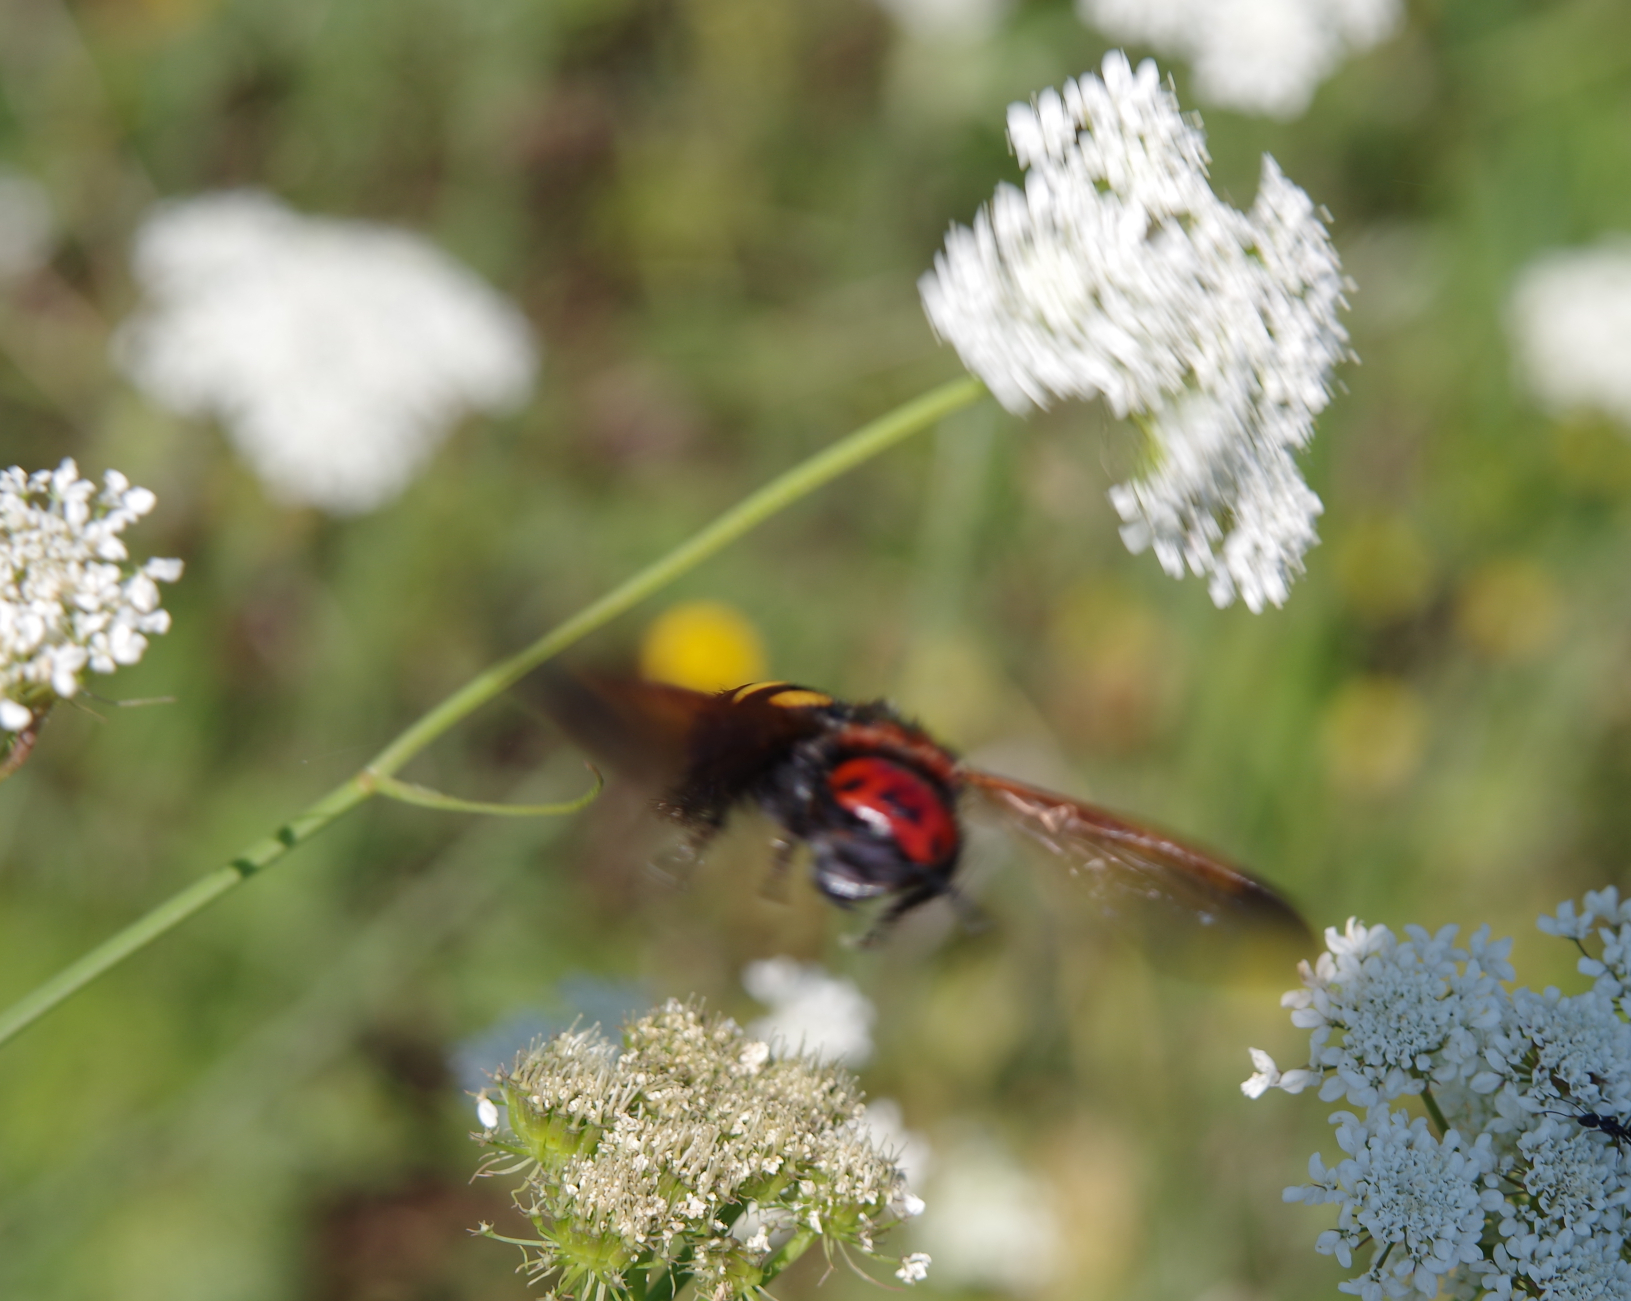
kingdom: Animalia
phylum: Arthropoda
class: Insecta
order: Hymenoptera
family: Scoliidae
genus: Megascolia
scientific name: Megascolia maculata
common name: Mammoth wasp
